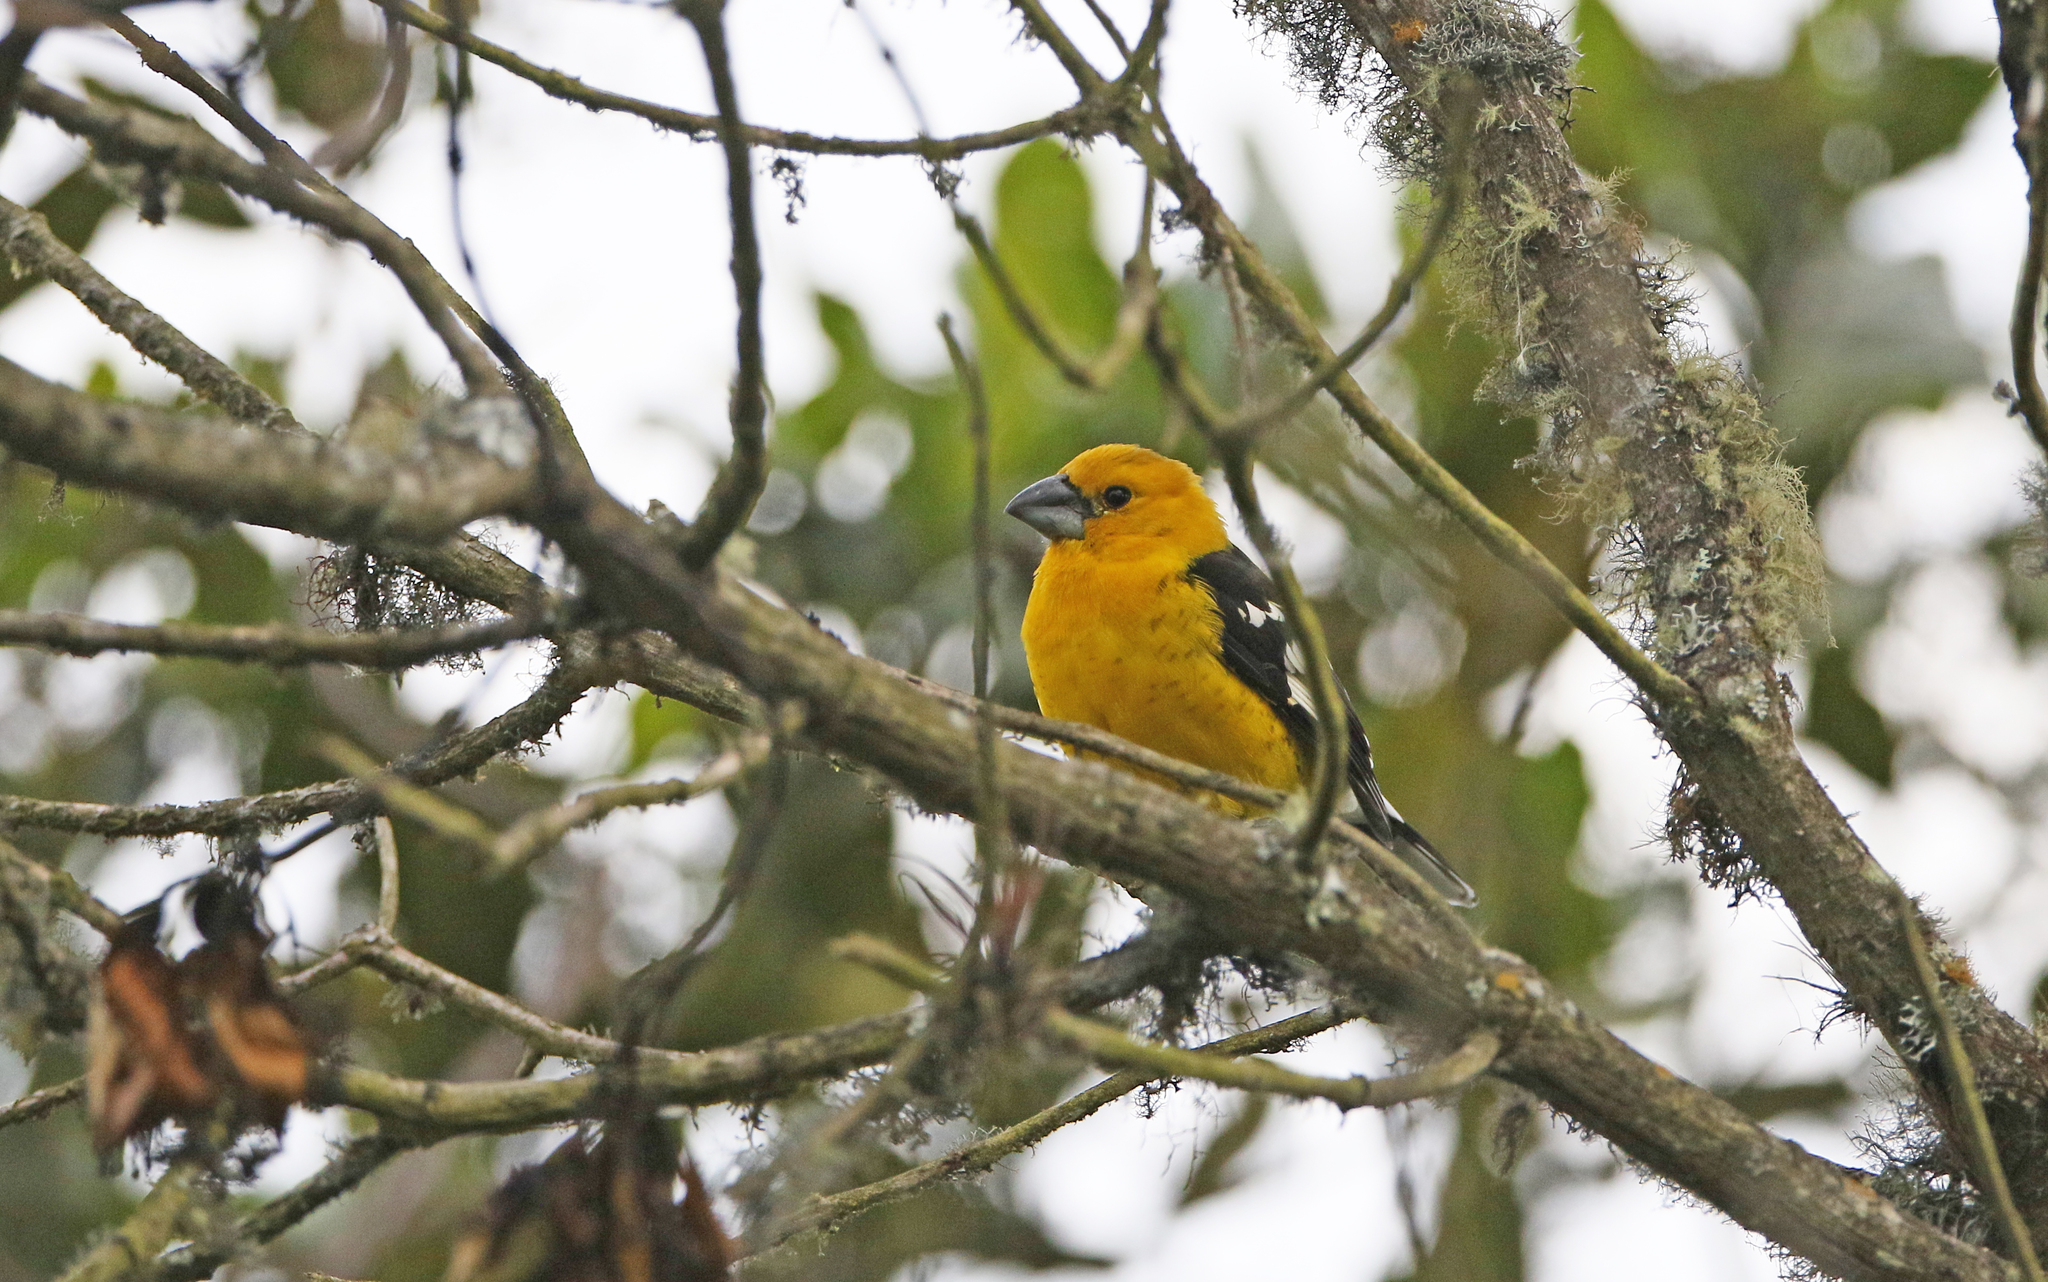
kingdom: Animalia
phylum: Chordata
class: Aves
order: Passeriformes
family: Cardinalidae
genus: Pheucticus
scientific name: Pheucticus chrysogaster
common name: Golden grosbeak
